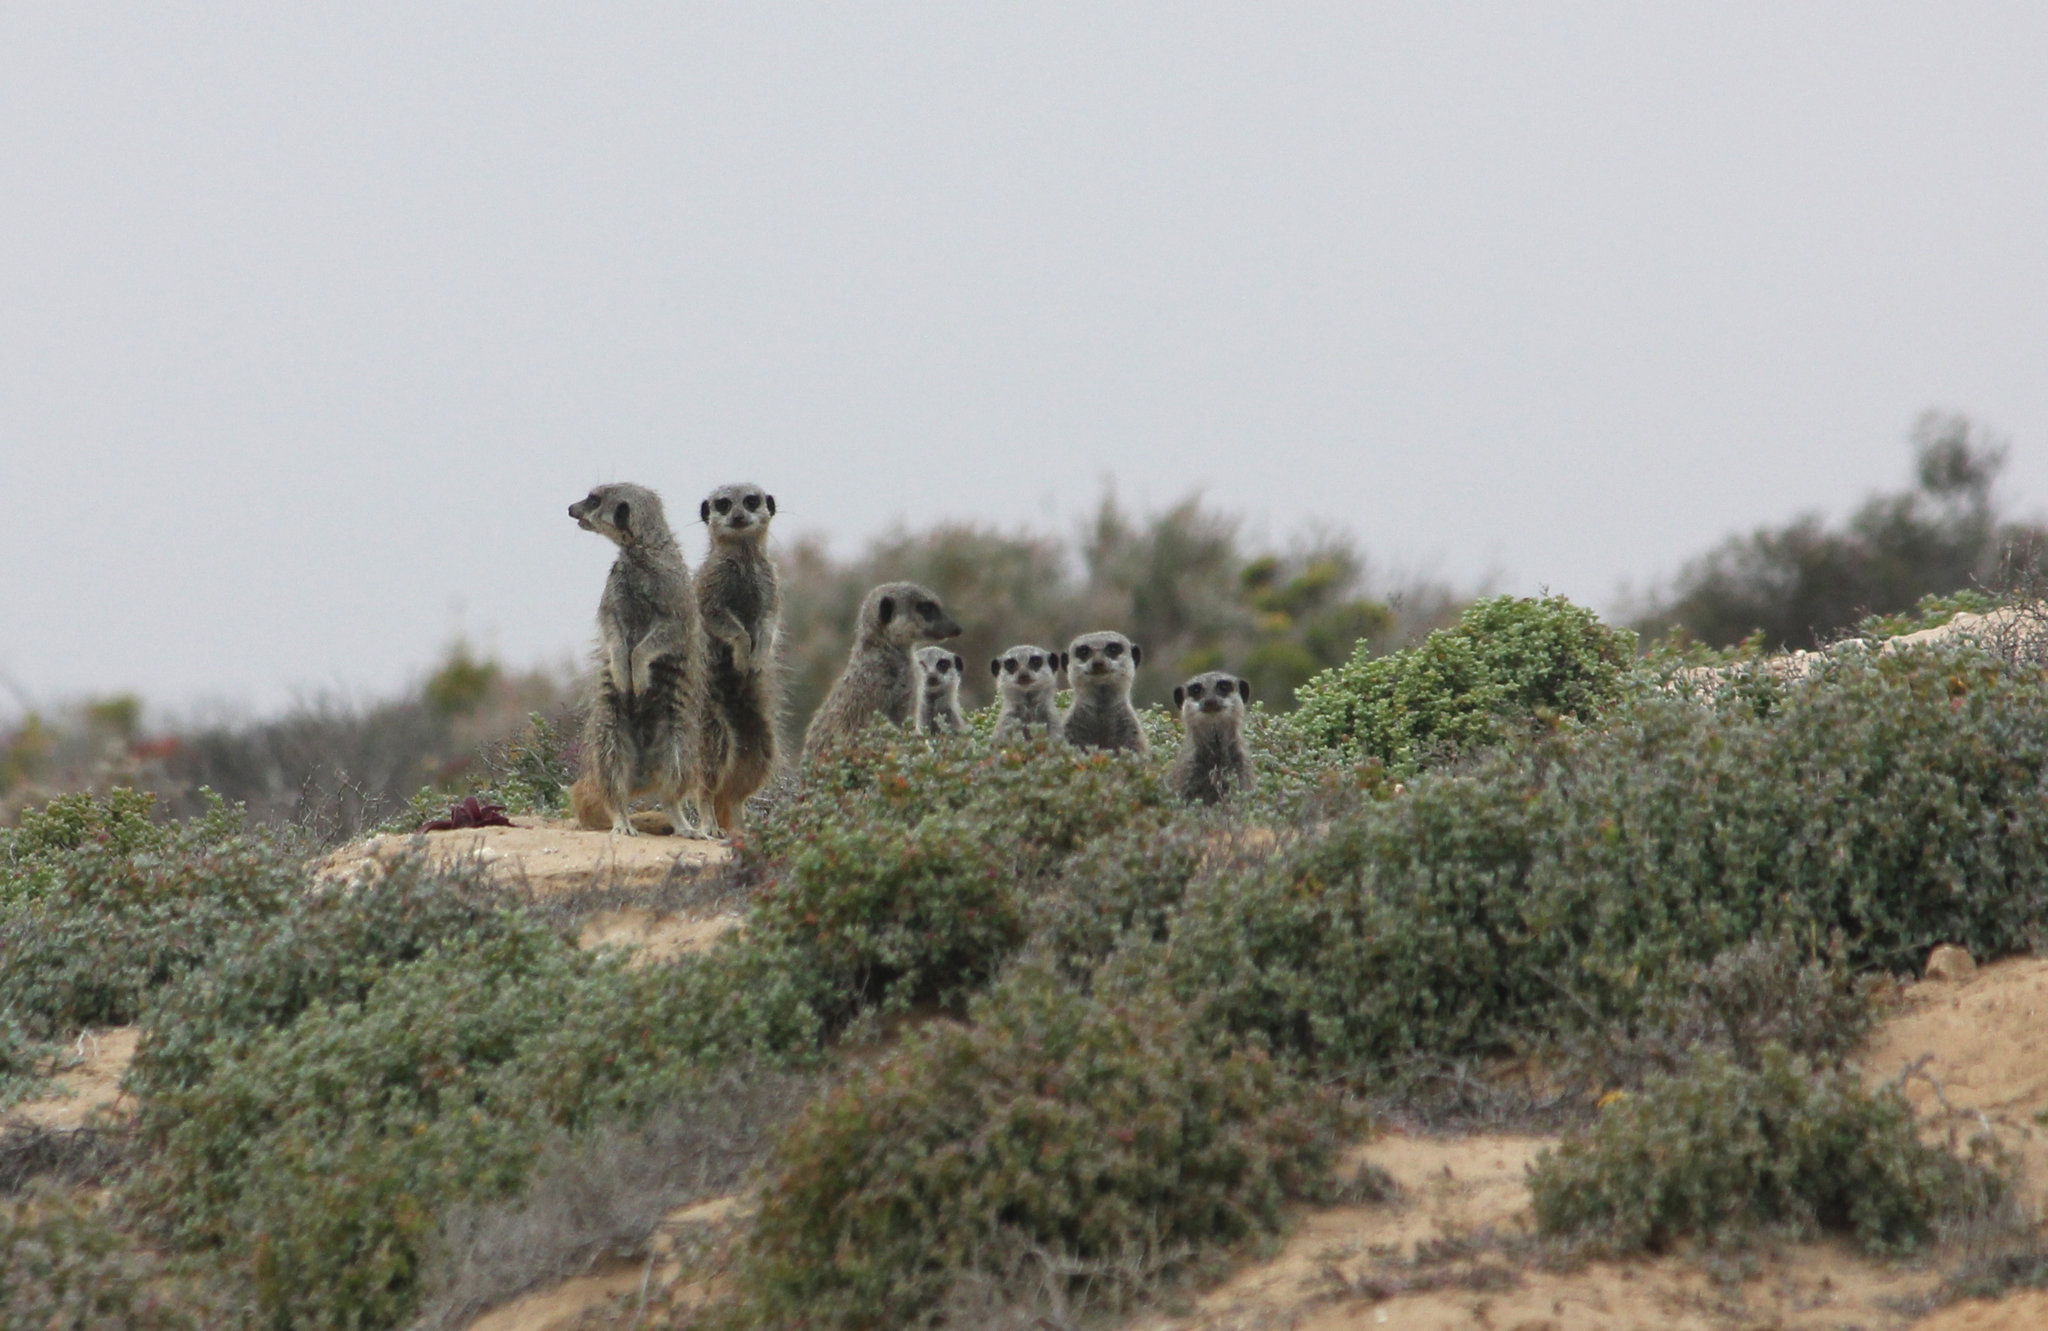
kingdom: Animalia
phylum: Chordata
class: Mammalia
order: Carnivora
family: Herpestidae
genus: Suricata
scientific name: Suricata suricatta
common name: Meerkat
